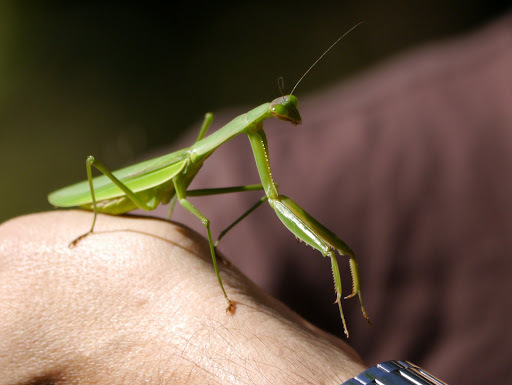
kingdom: Animalia
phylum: Arthropoda
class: Insecta
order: Mantodea
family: Mantidae
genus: Tenodera
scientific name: Tenodera sinensis
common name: Chinese mantis
